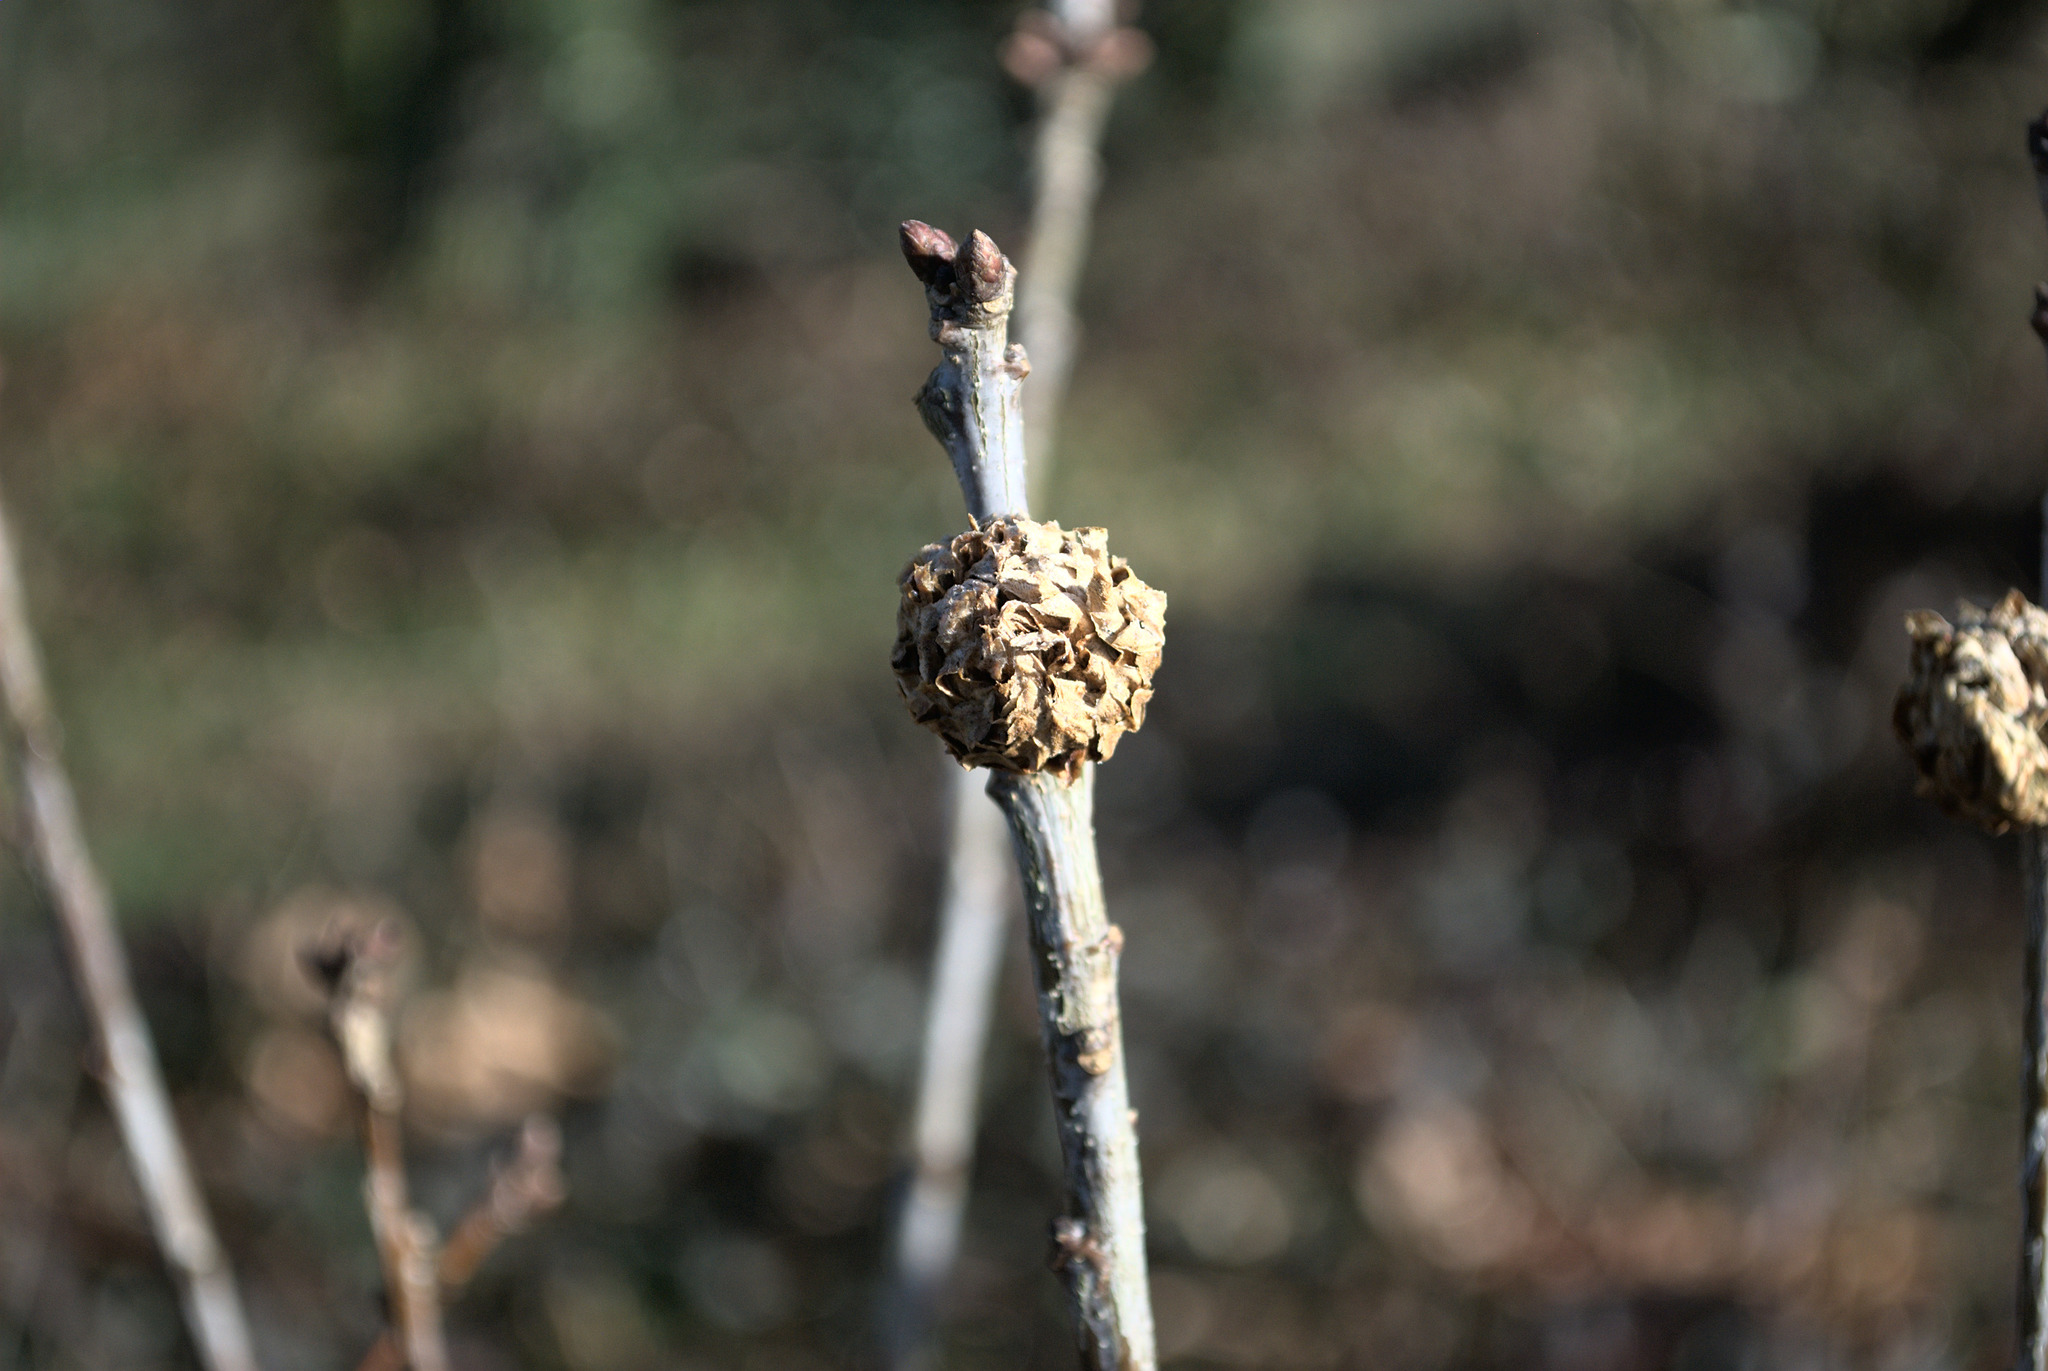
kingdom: Animalia
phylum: Arthropoda
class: Insecta
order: Hymenoptera
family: Cynipidae
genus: Andricus
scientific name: Andricus foecundatrix
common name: Artichoke gall
